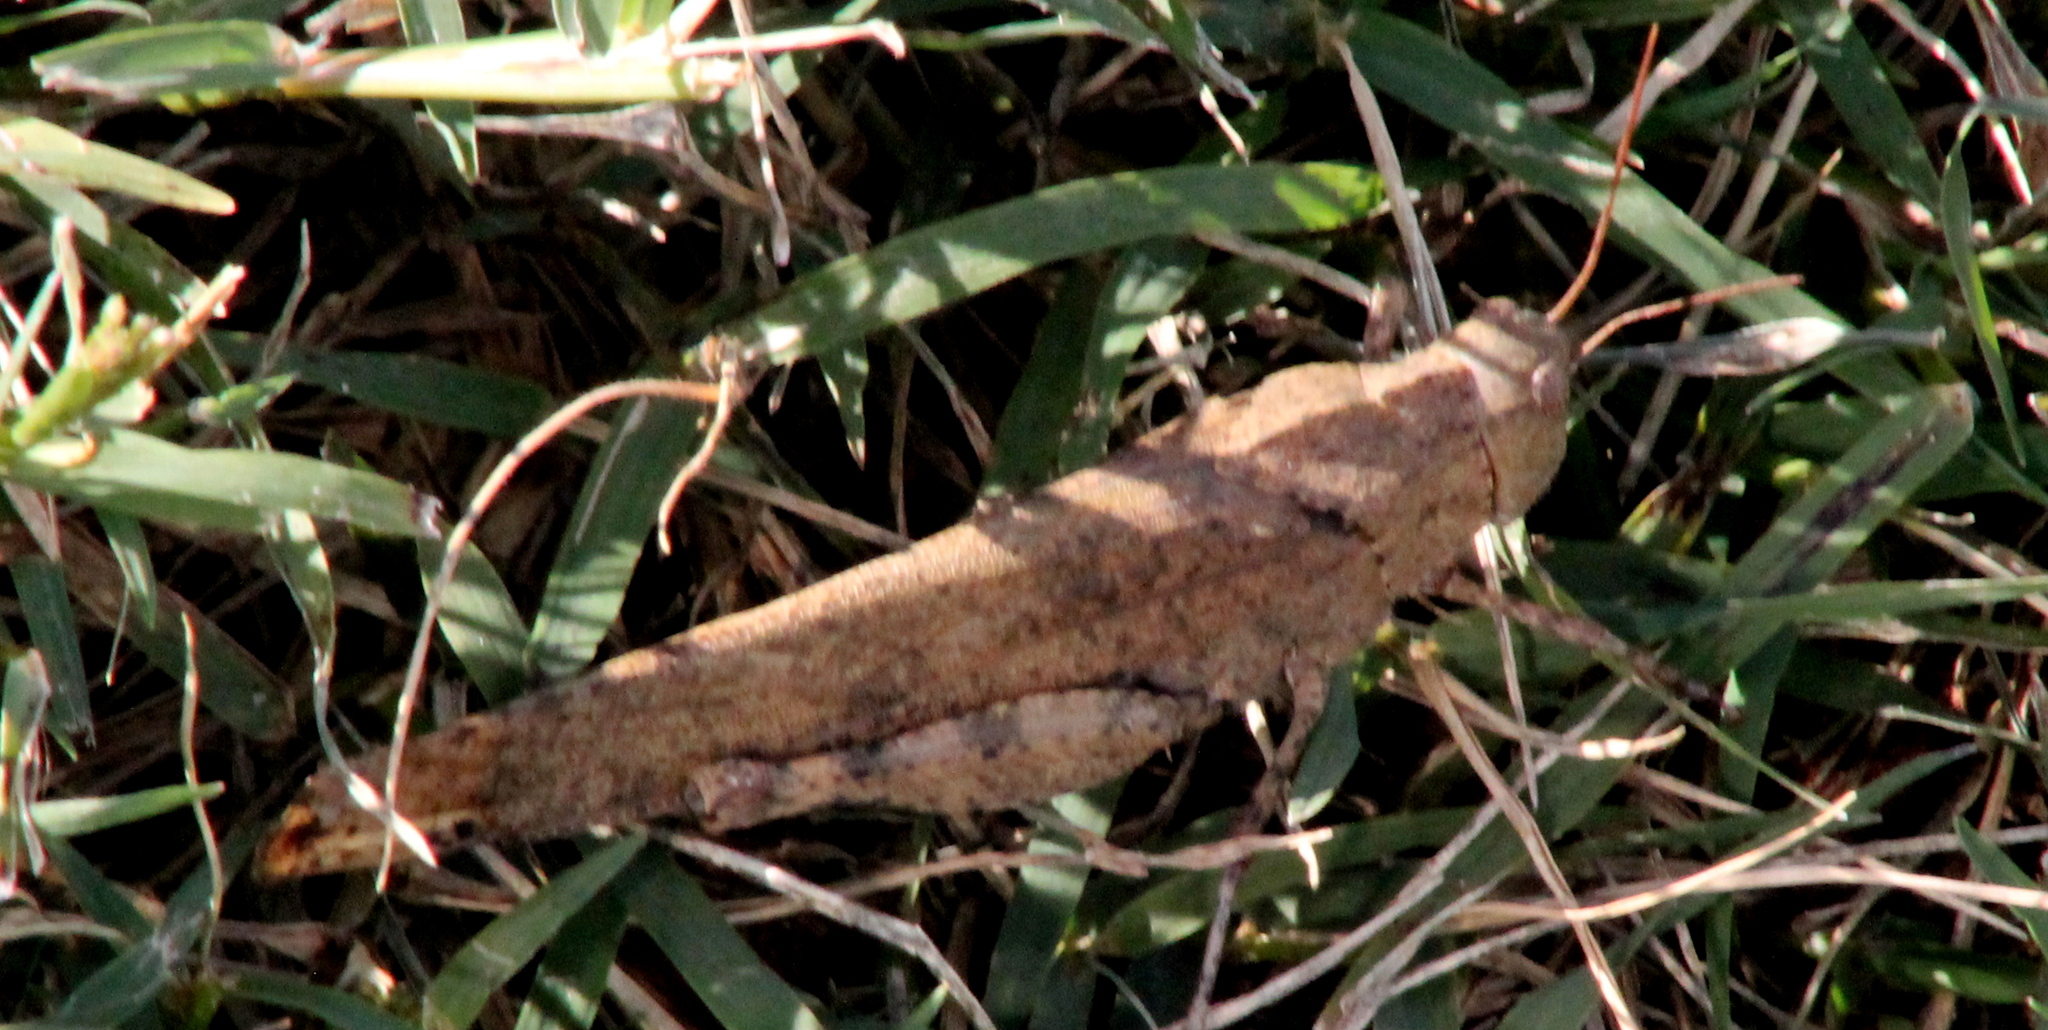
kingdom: Animalia
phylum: Arthropoda
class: Insecta
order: Orthoptera
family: Acrididae
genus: Dissosteira
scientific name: Dissosteira carolina
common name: Carolina grasshopper
